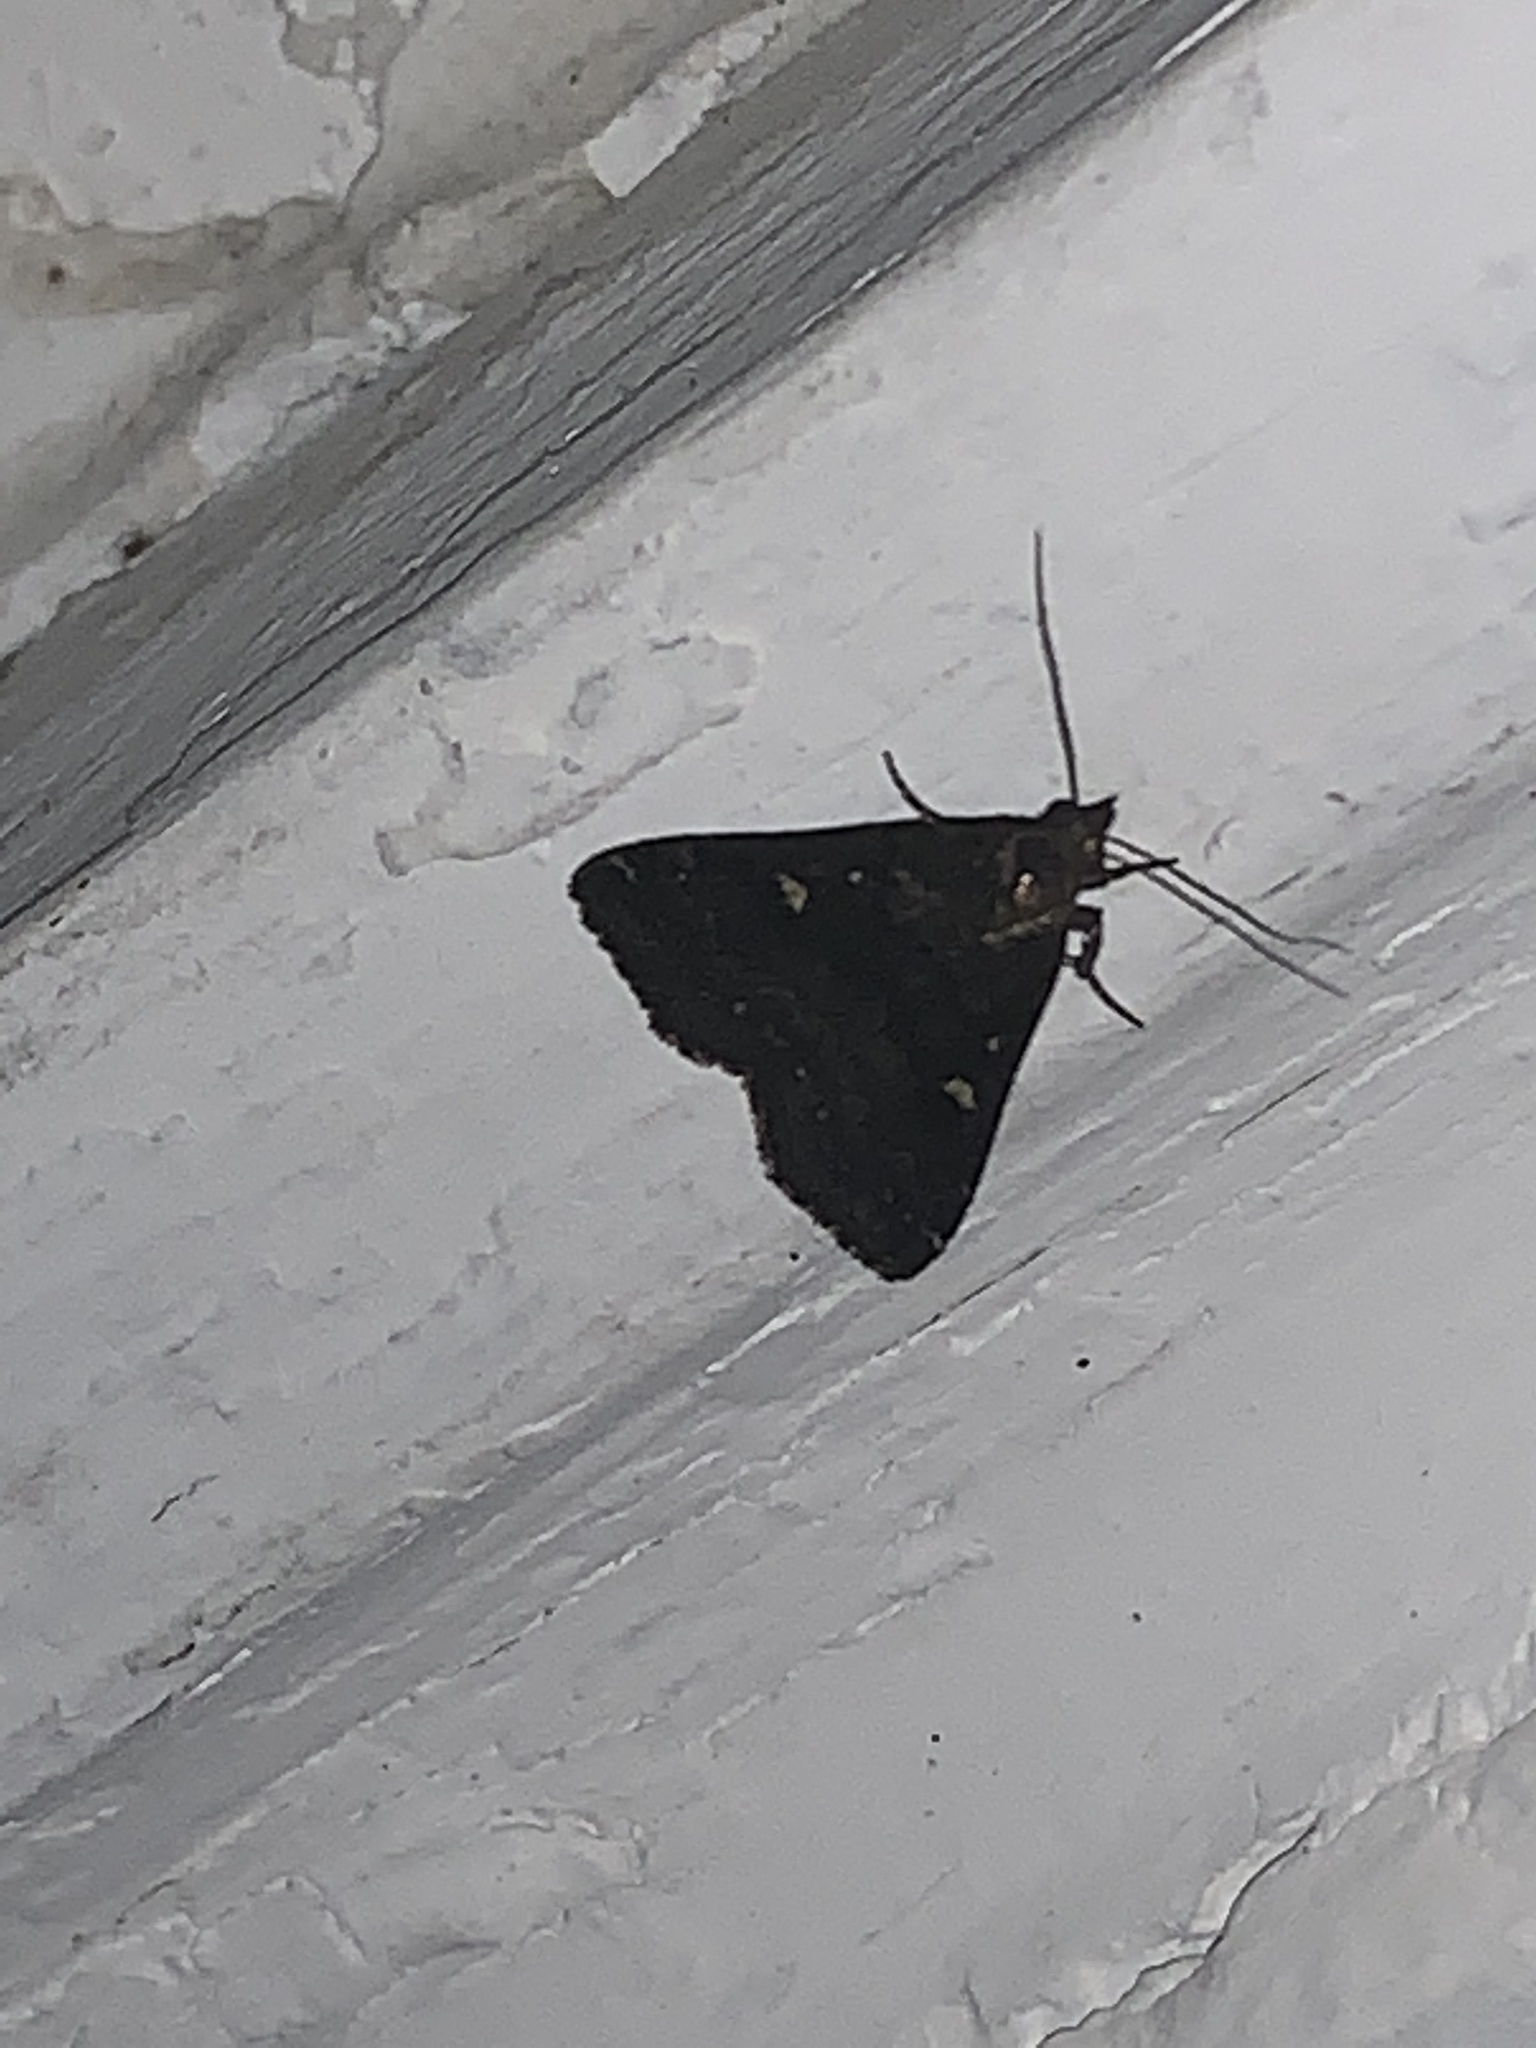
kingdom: Animalia
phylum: Arthropoda
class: Insecta
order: Lepidoptera
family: Erebidae
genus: Tetanolita
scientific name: Tetanolita mynesalis
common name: Smoky tetanolita moth
